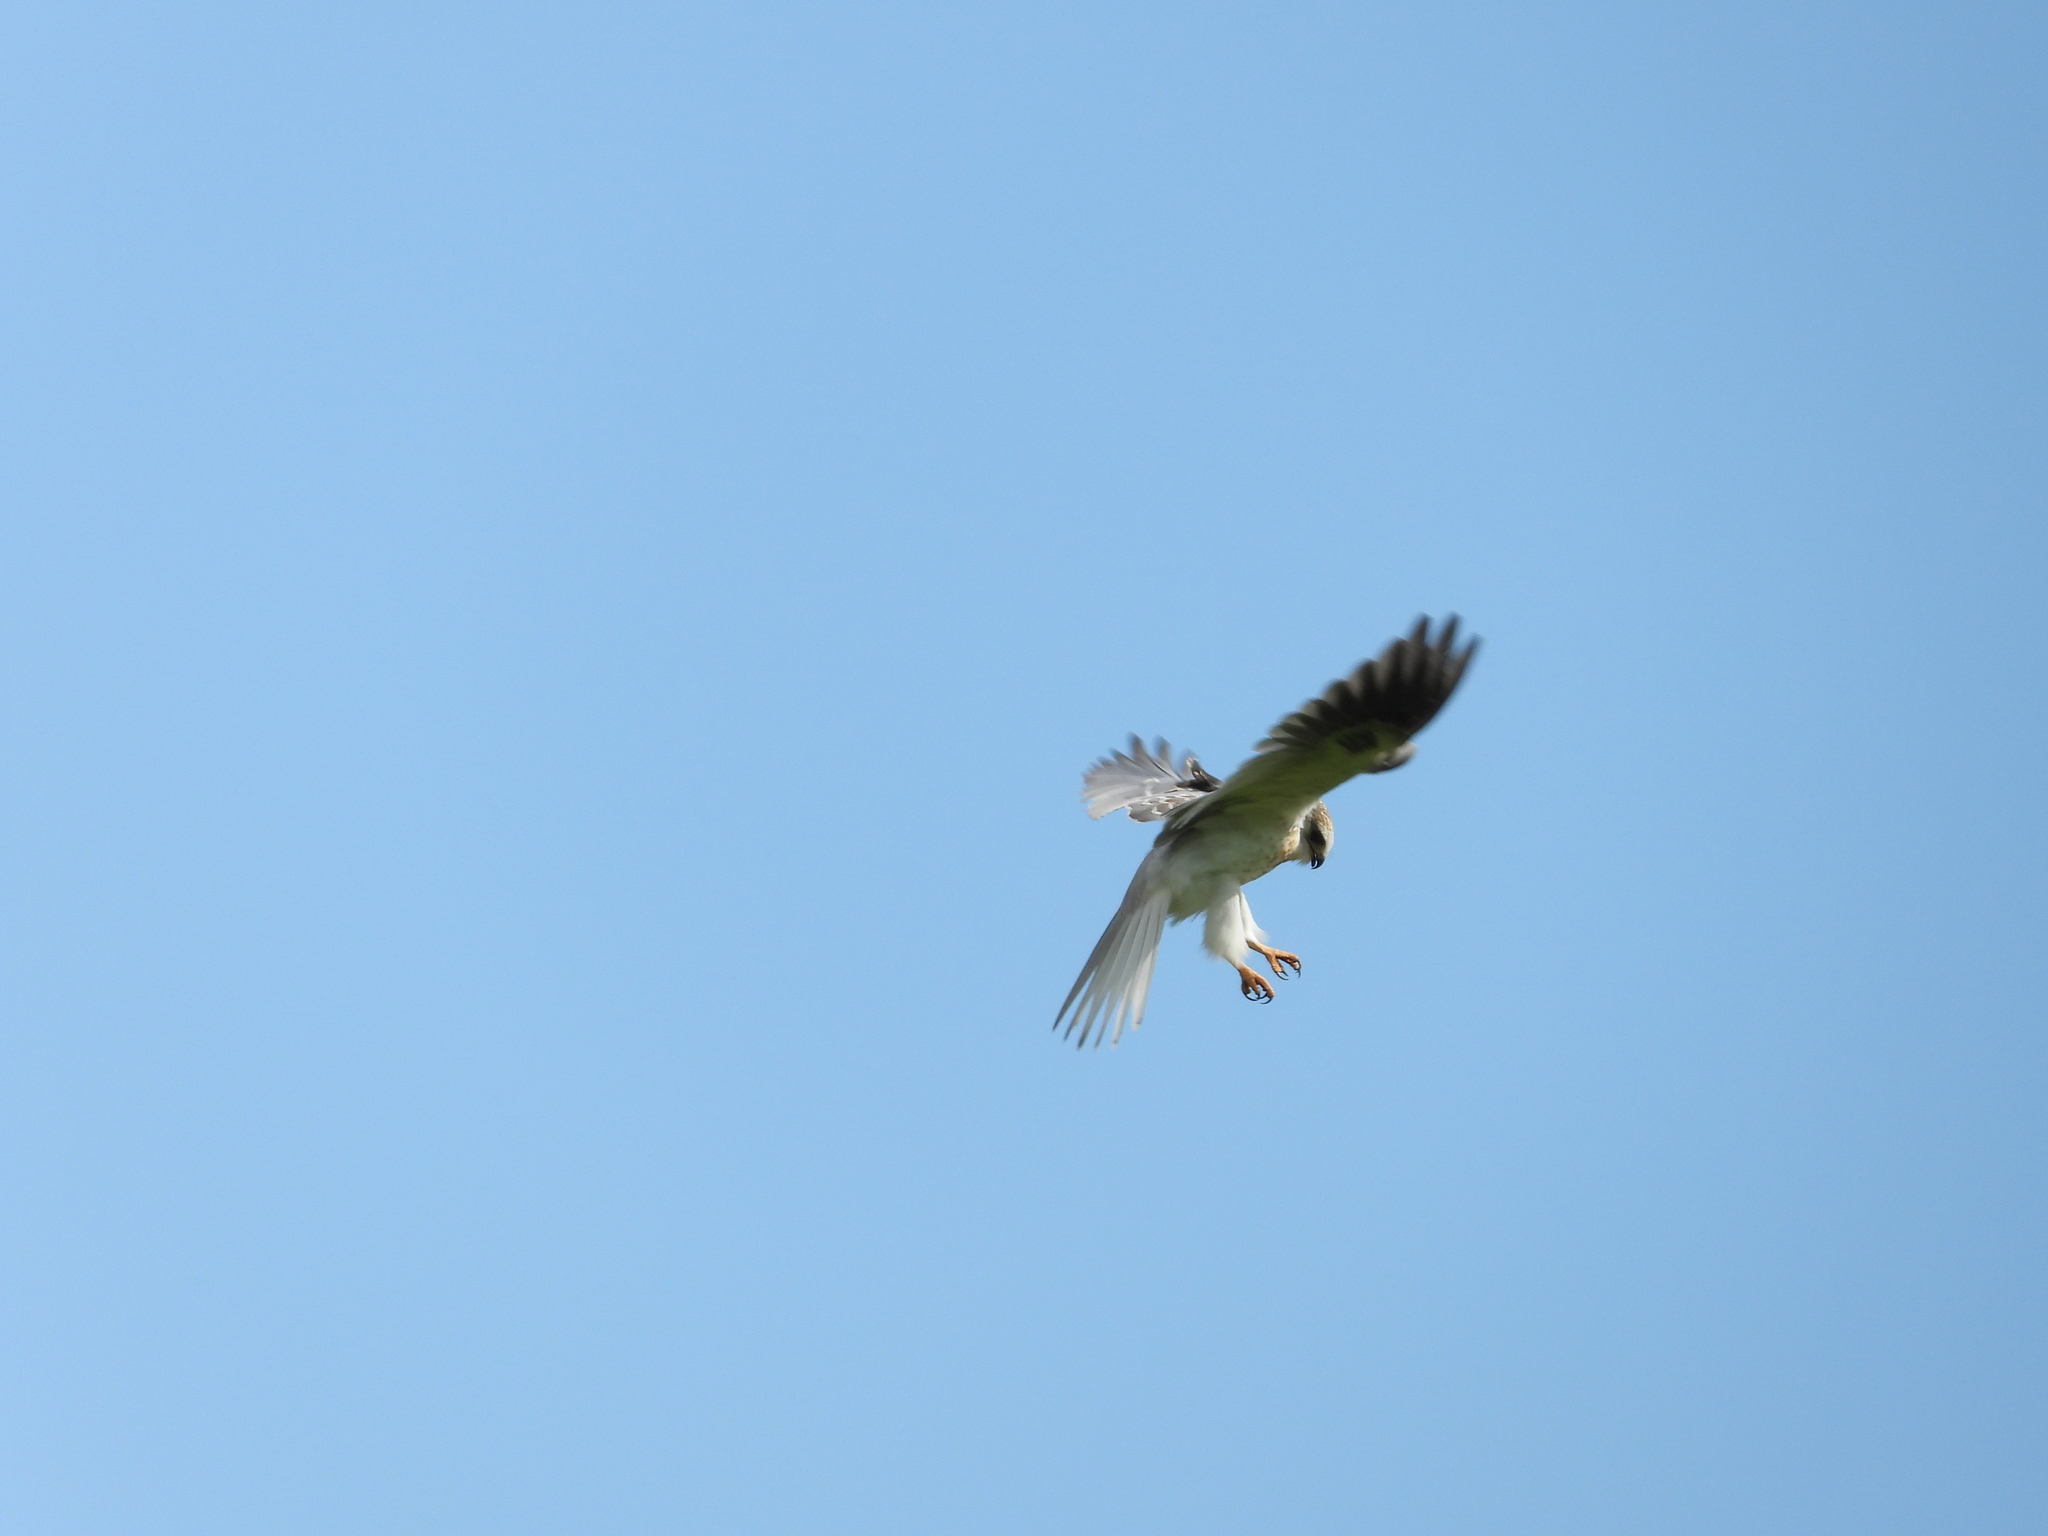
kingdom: Animalia
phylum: Chordata
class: Aves
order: Accipitriformes
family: Accipitridae
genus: Elanus
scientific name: Elanus leucurus
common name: White-tailed kite
